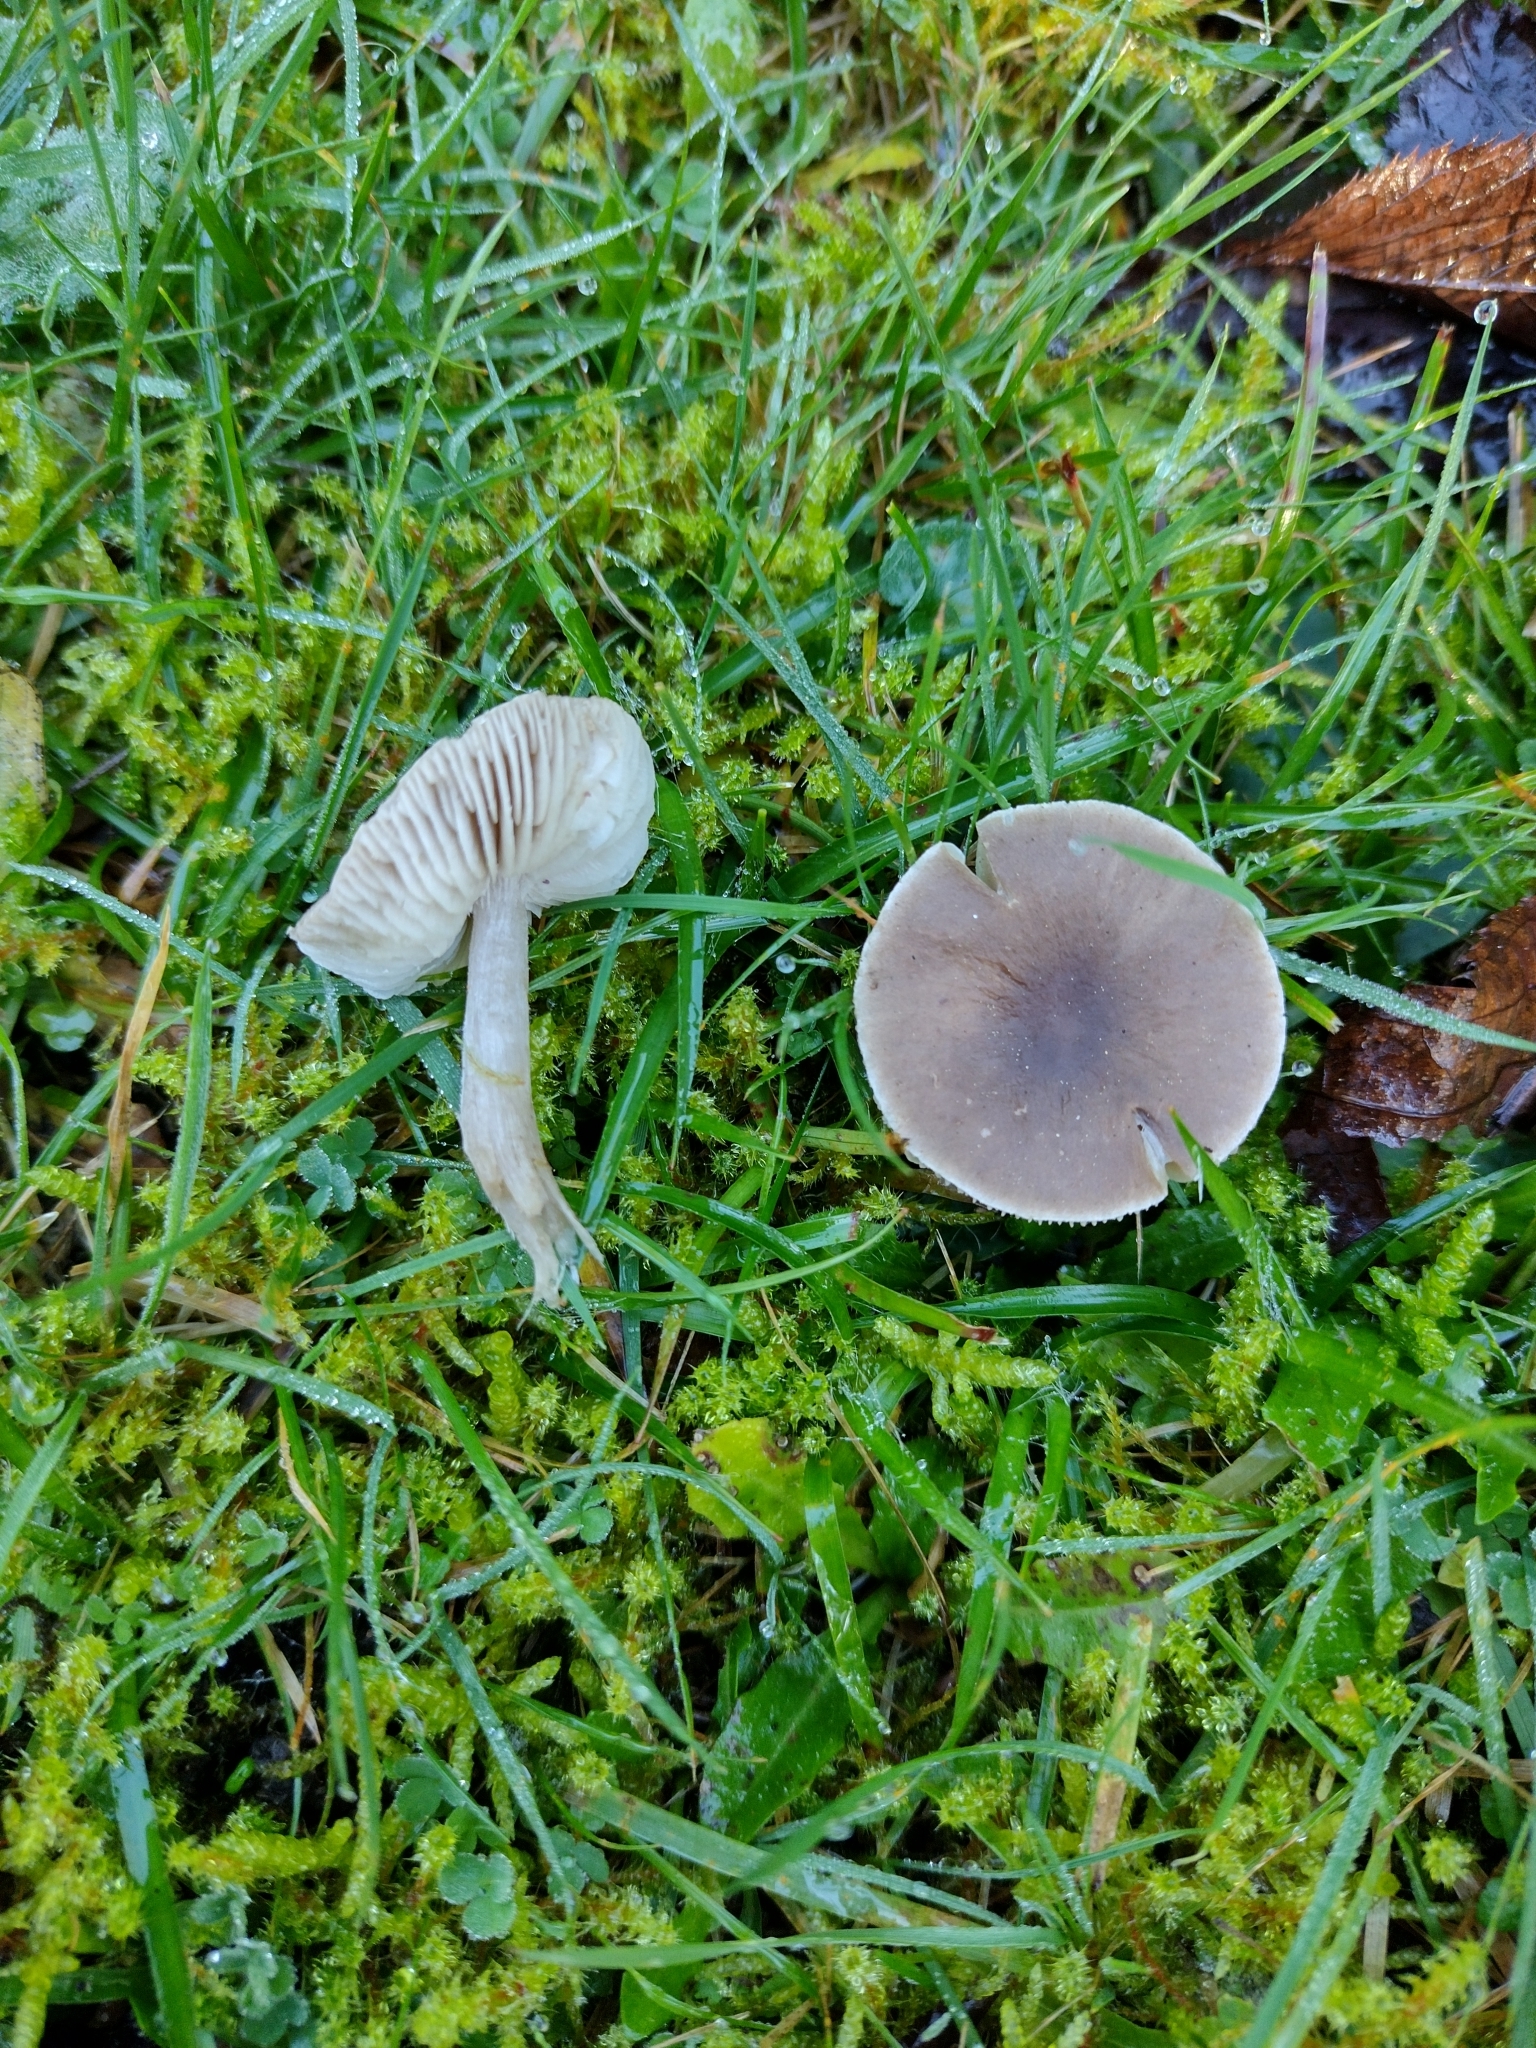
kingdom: Fungi
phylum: Basidiomycota
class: Agaricomycetes
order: Agaricales
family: Tricholomataceae
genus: Dermoloma
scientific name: Dermoloma cuneifolium
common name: Crazed cap
